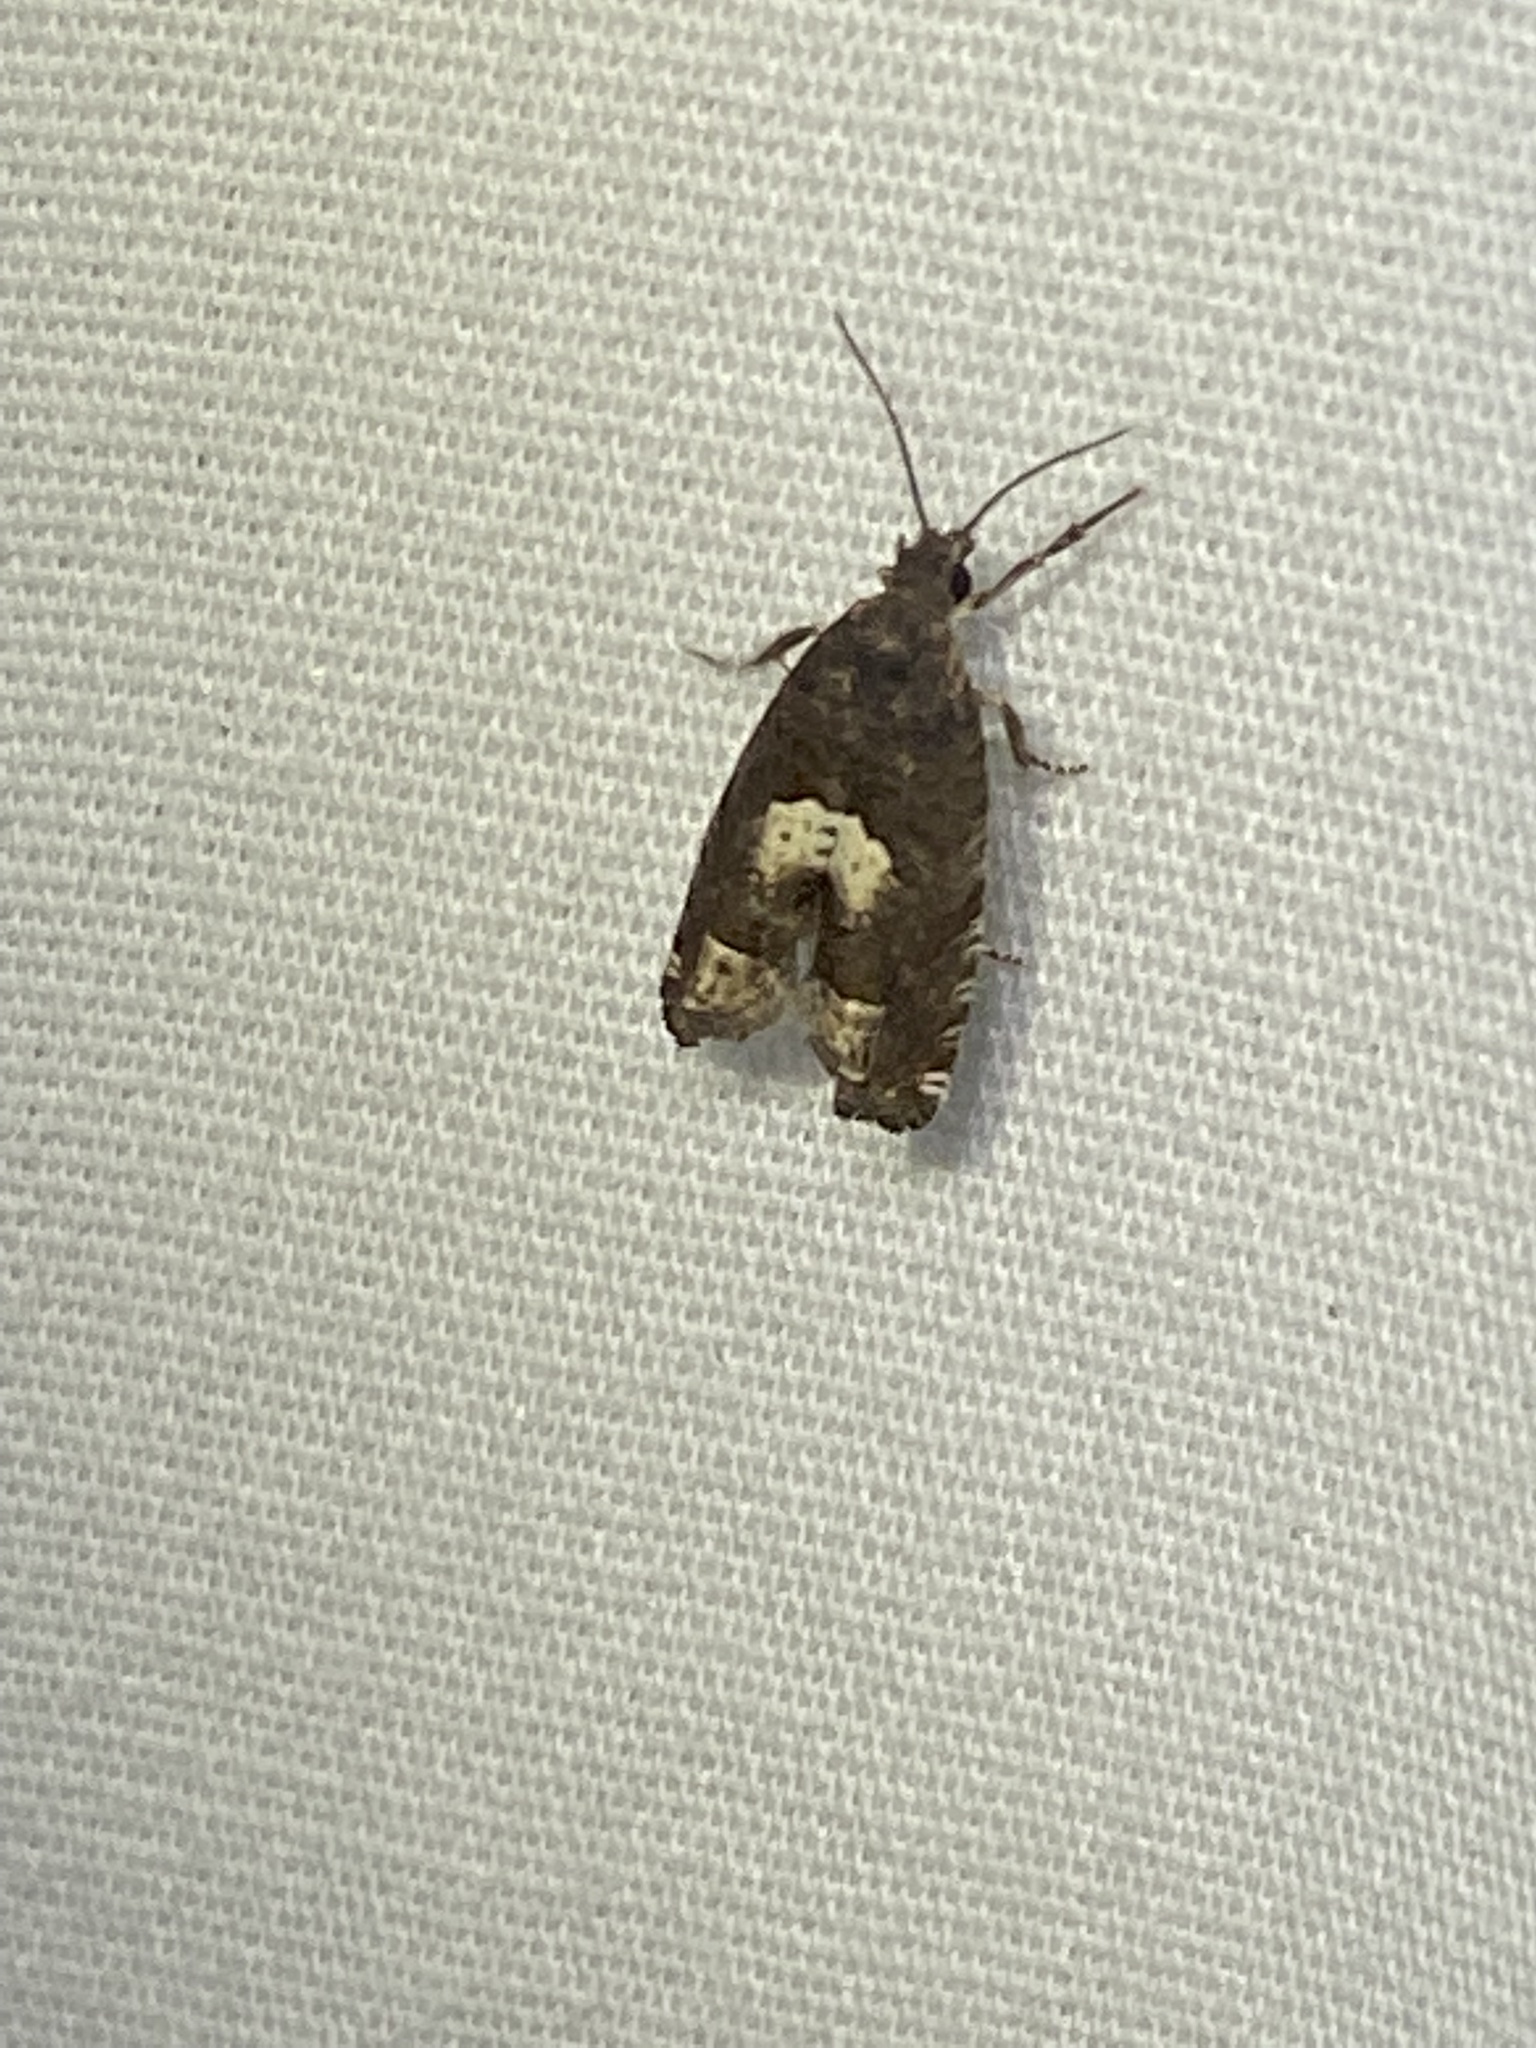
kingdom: Animalia
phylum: Arthropoda
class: Insecta
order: Lepidoptera
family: Tortricidae
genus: Eucosma
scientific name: Eucosma parmatana
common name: Aster eucosma moth
